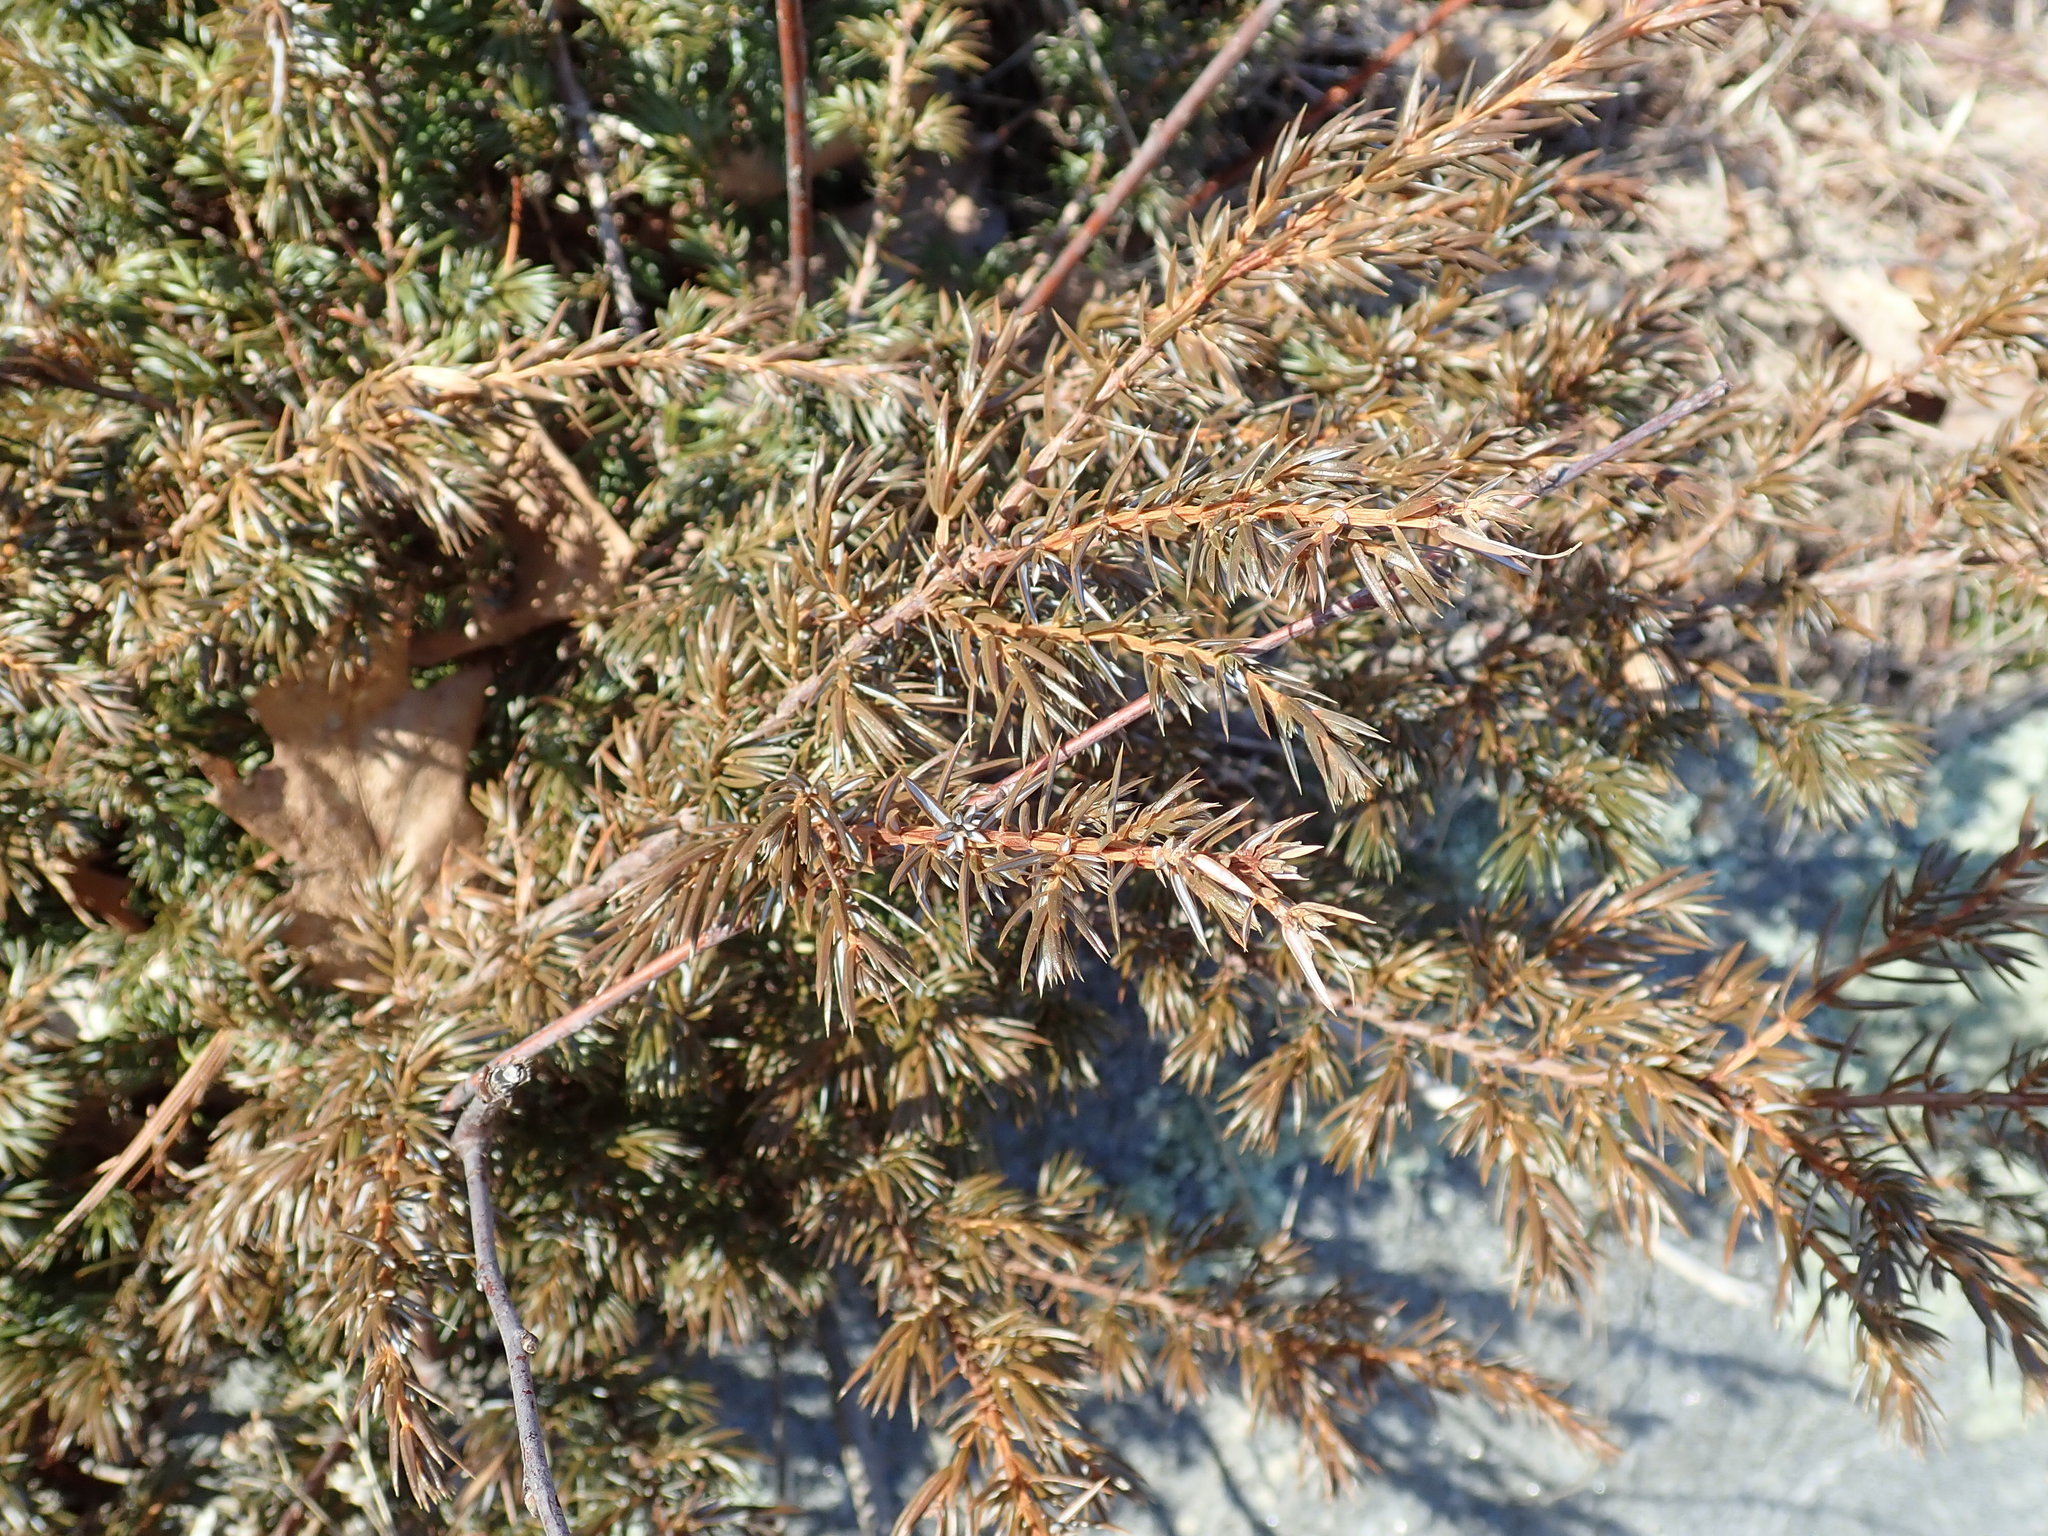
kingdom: Plantae
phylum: Tracheophyta
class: Pinopsida
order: Pinales
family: Cupressaceae
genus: Juniperus
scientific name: Juniperus communis
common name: Common juniper
